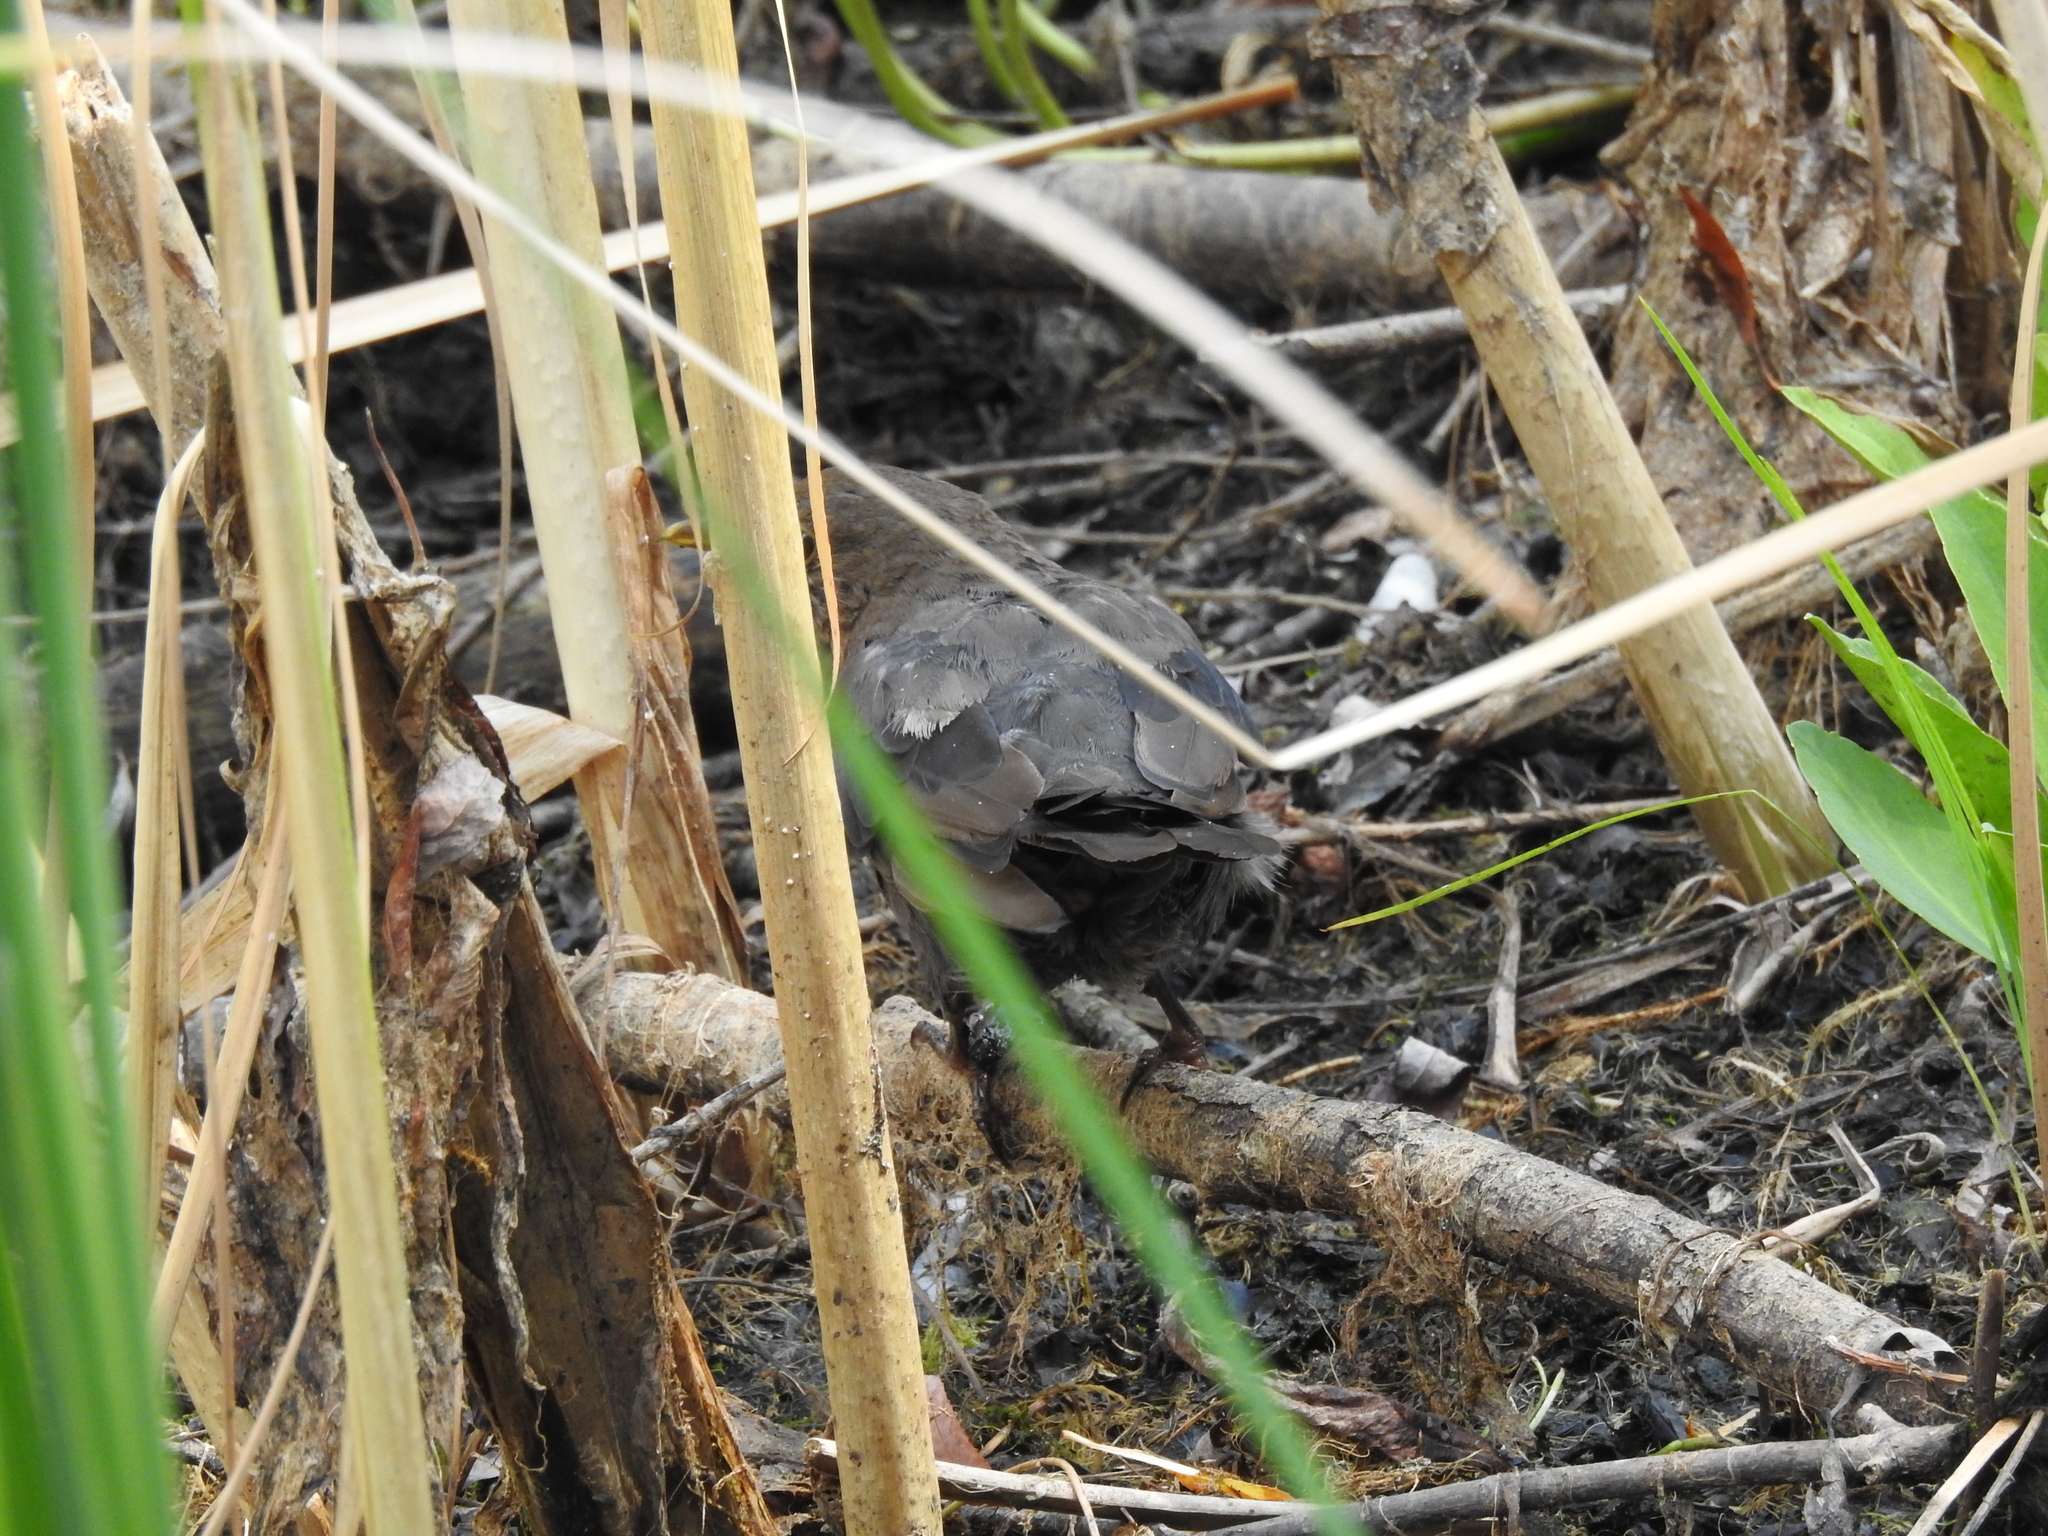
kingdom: Animalia
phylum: Chordata
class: Aves
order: Passeriformes
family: Turdidae
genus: Turdus
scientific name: Turdus merula
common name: Common blackbird
